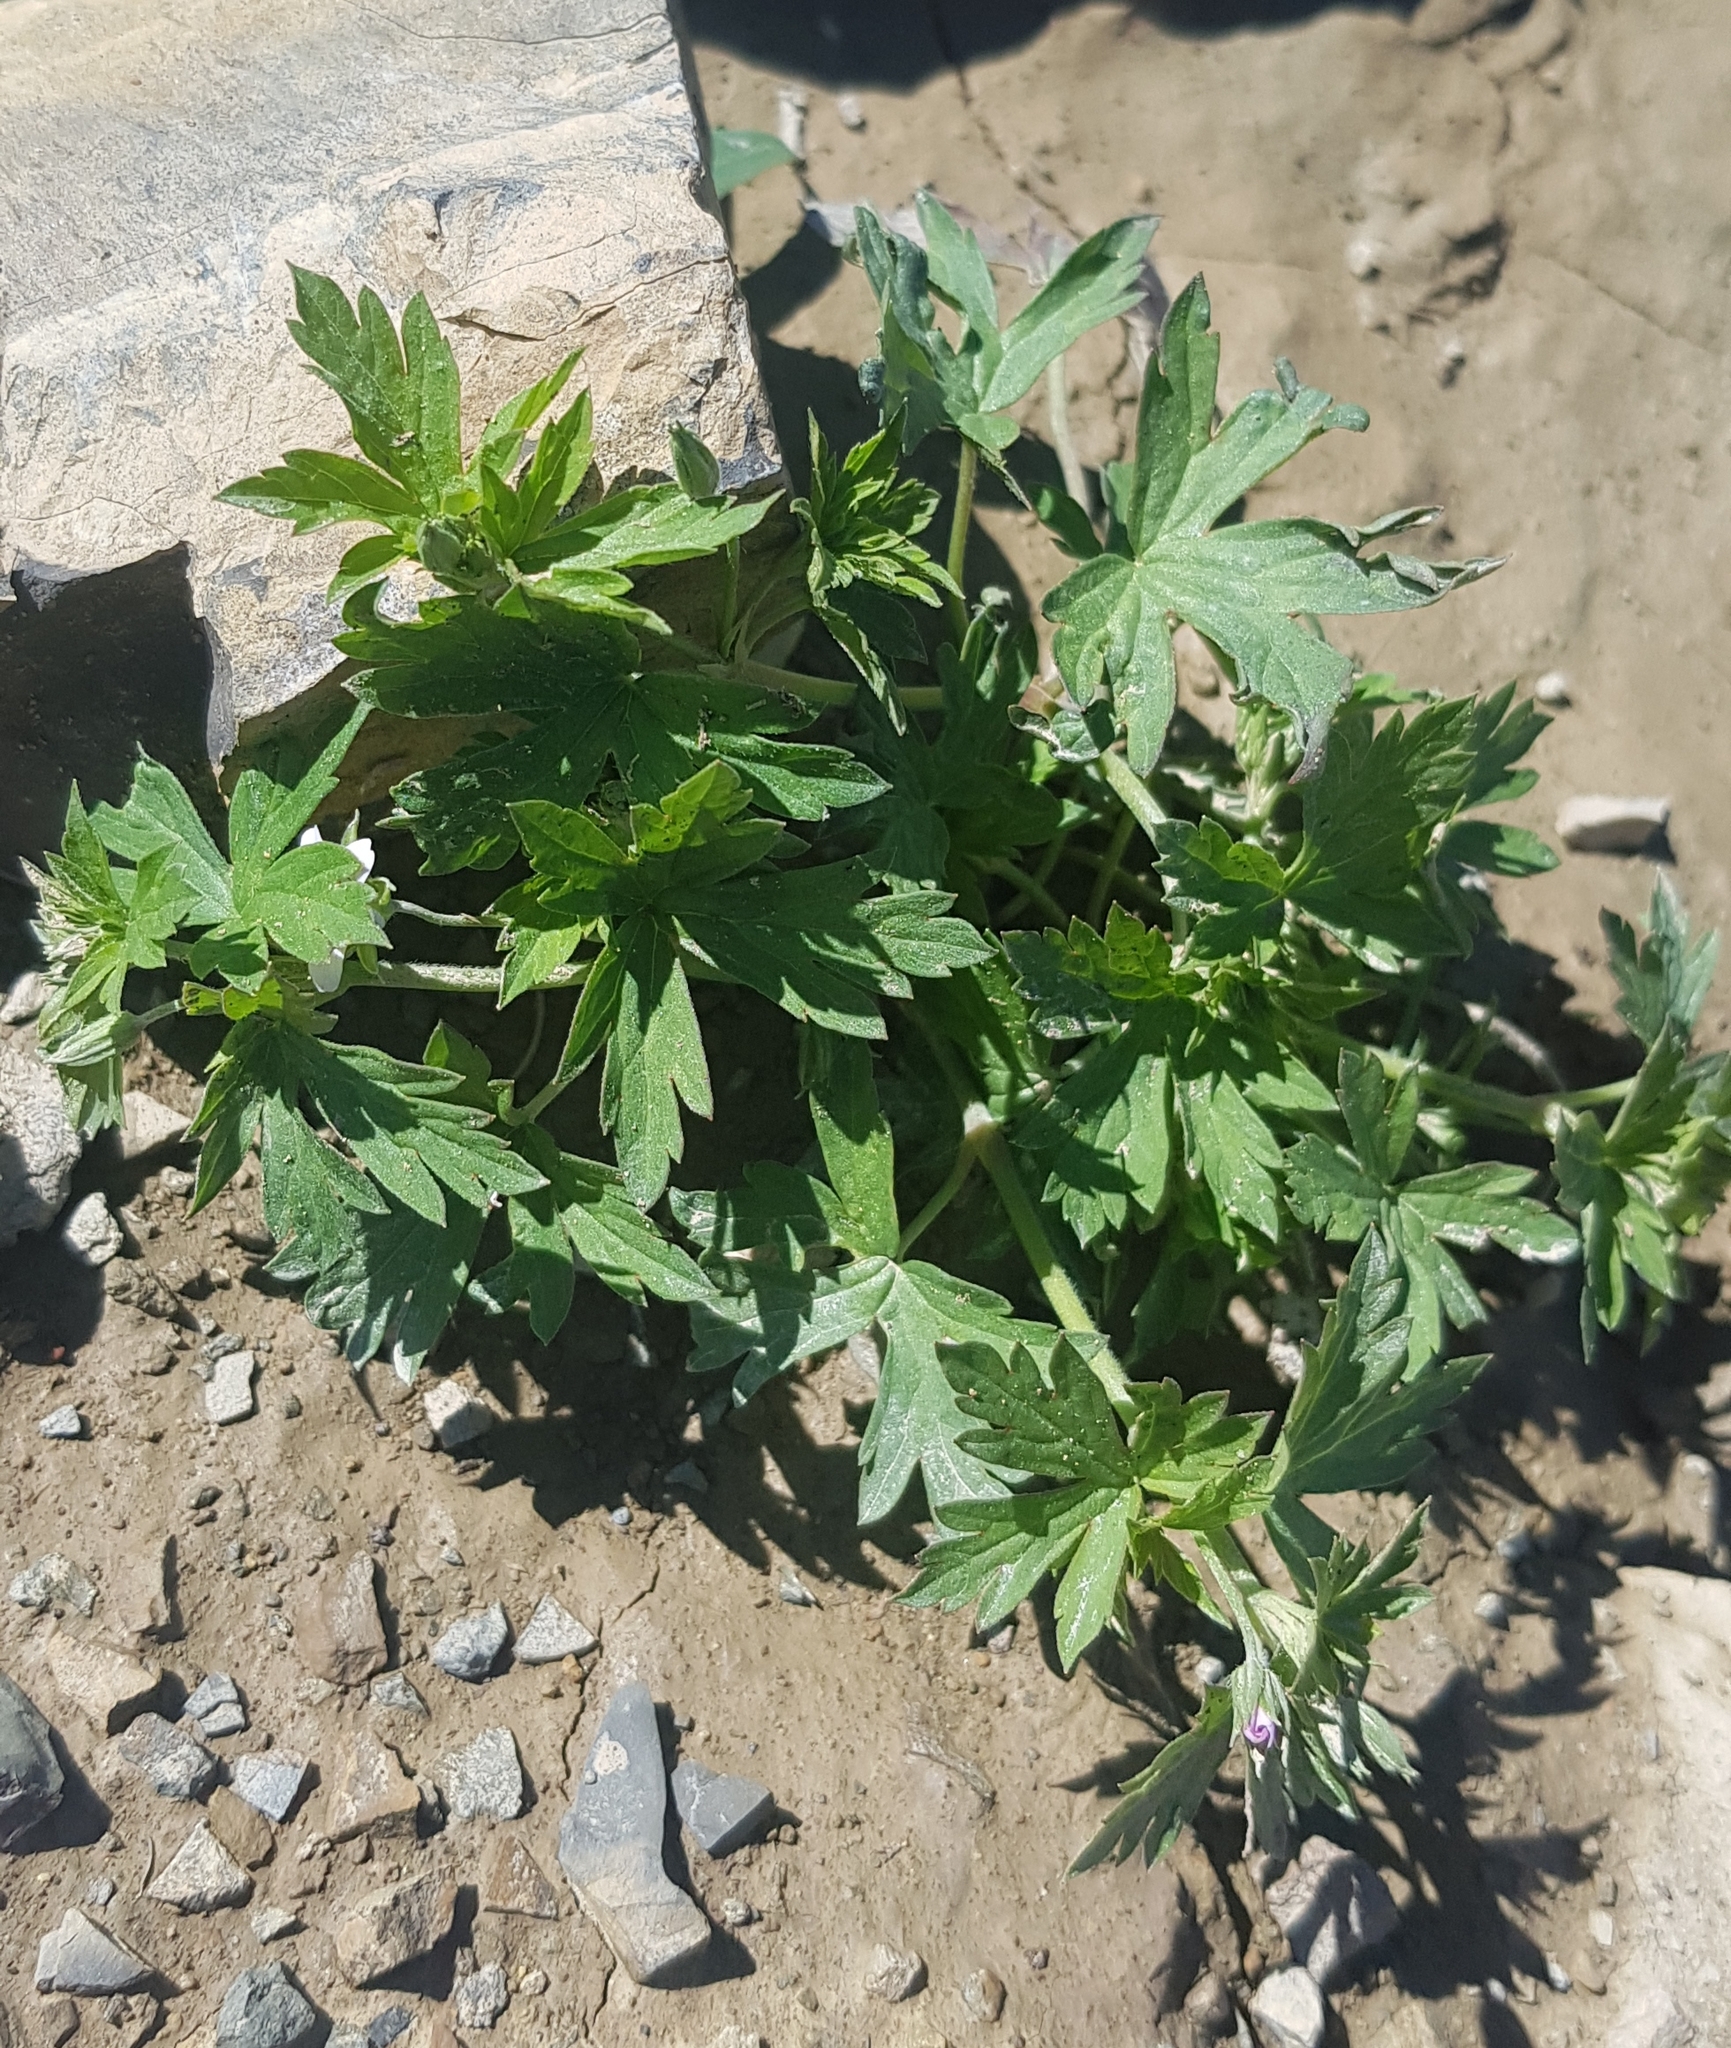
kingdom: Plantae
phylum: Tracheophyta
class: Magnoliopsida
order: Geraniales
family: Geraniaceae
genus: Geranium
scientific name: Geranium sibiricum
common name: Siberian crane's-bill
